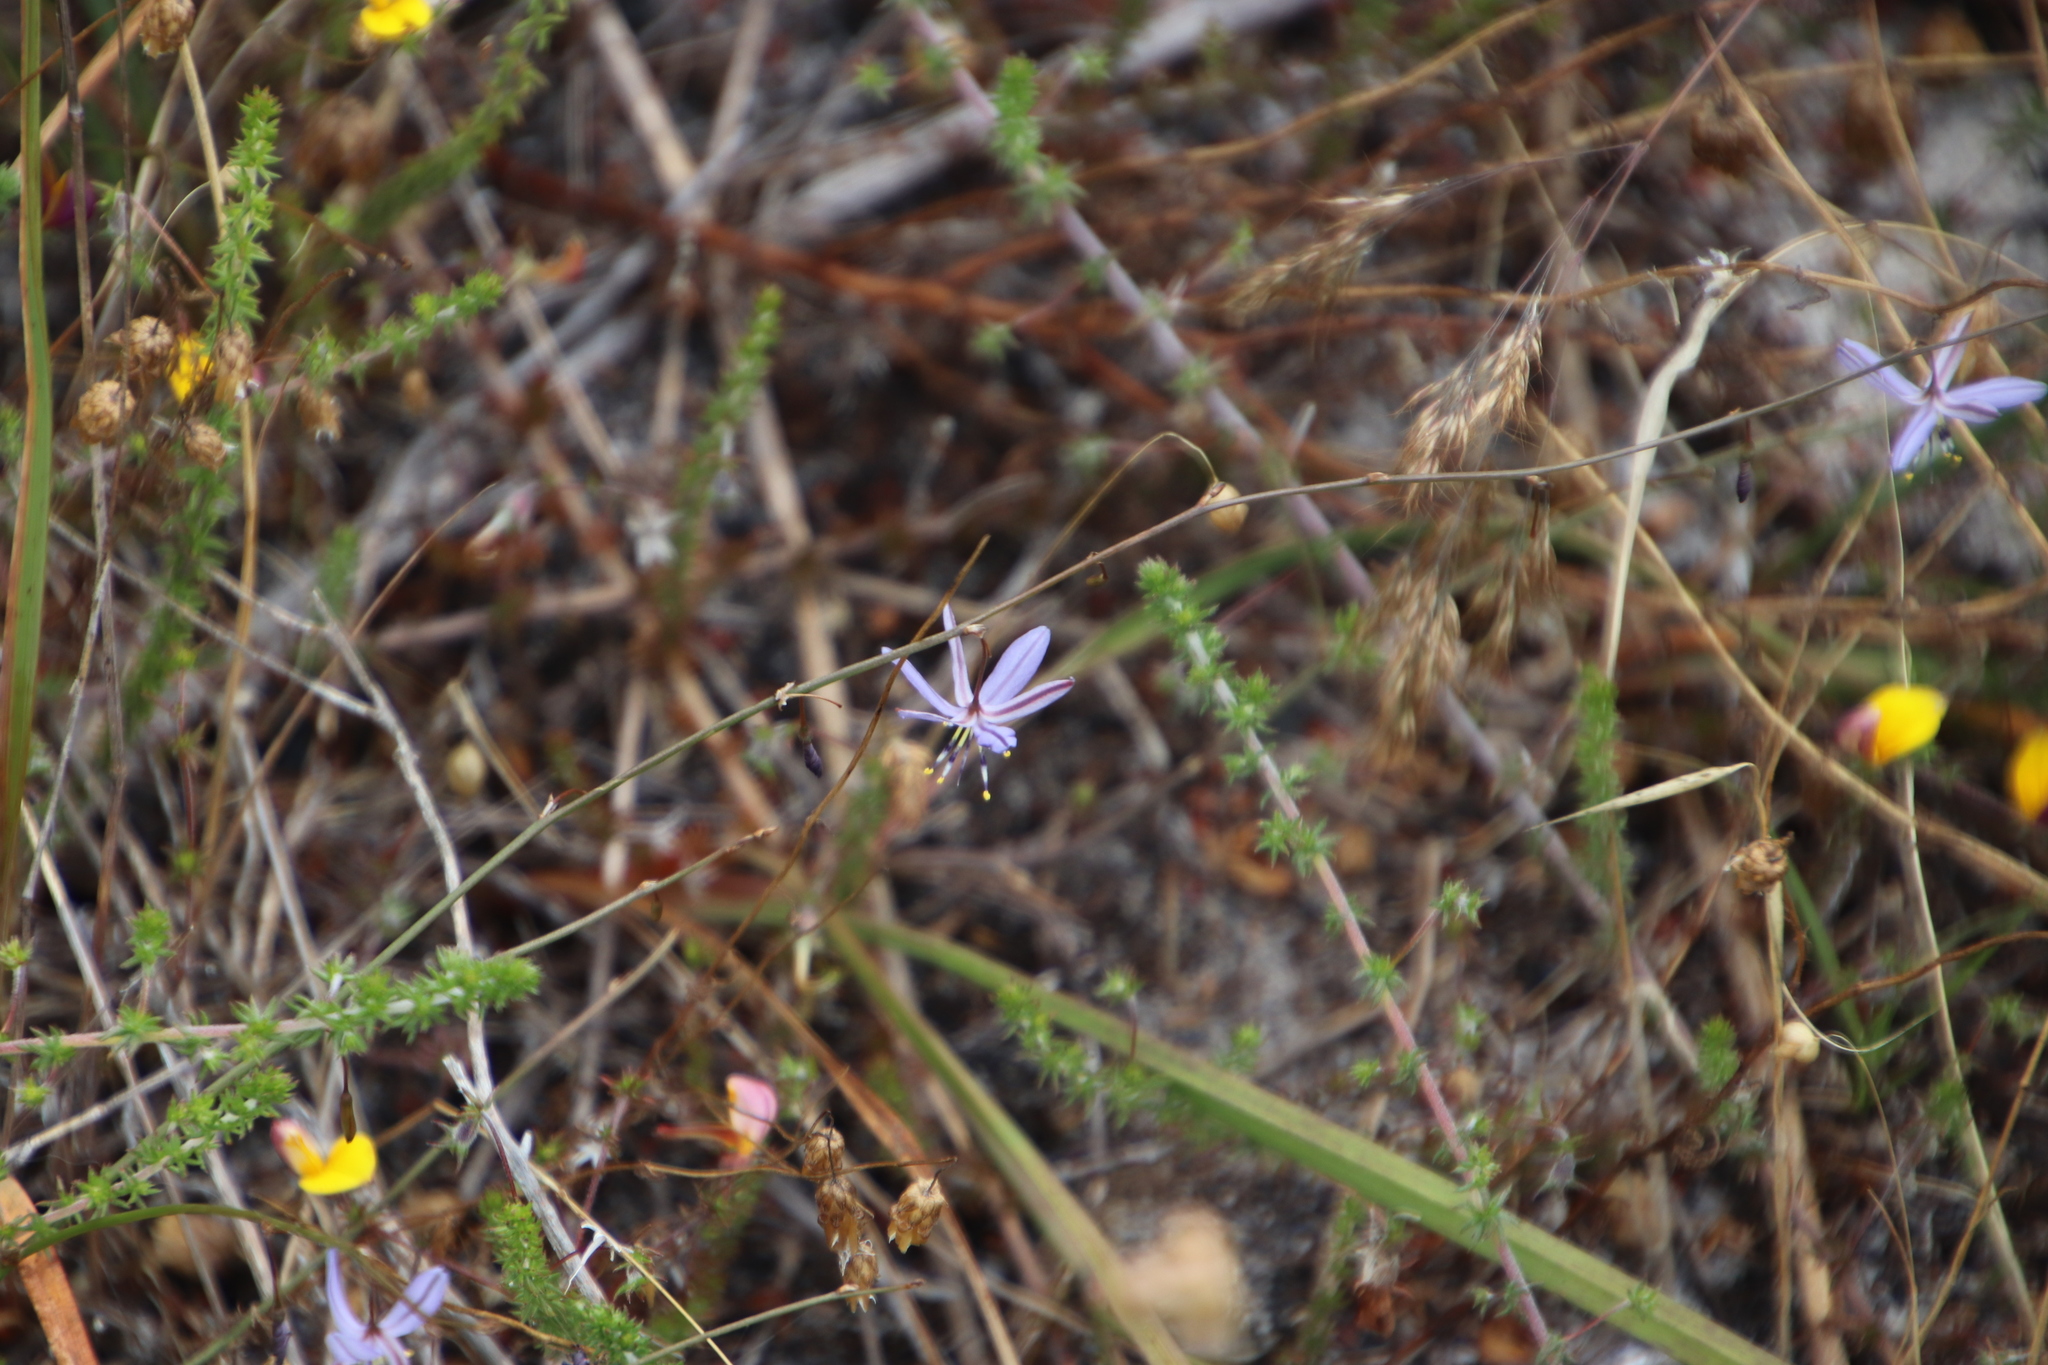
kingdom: Plantae
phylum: Tracheophyta
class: Liliopsida
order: Asparagales
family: Asphodelaceae
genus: Caesia
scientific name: Caesia contorta
